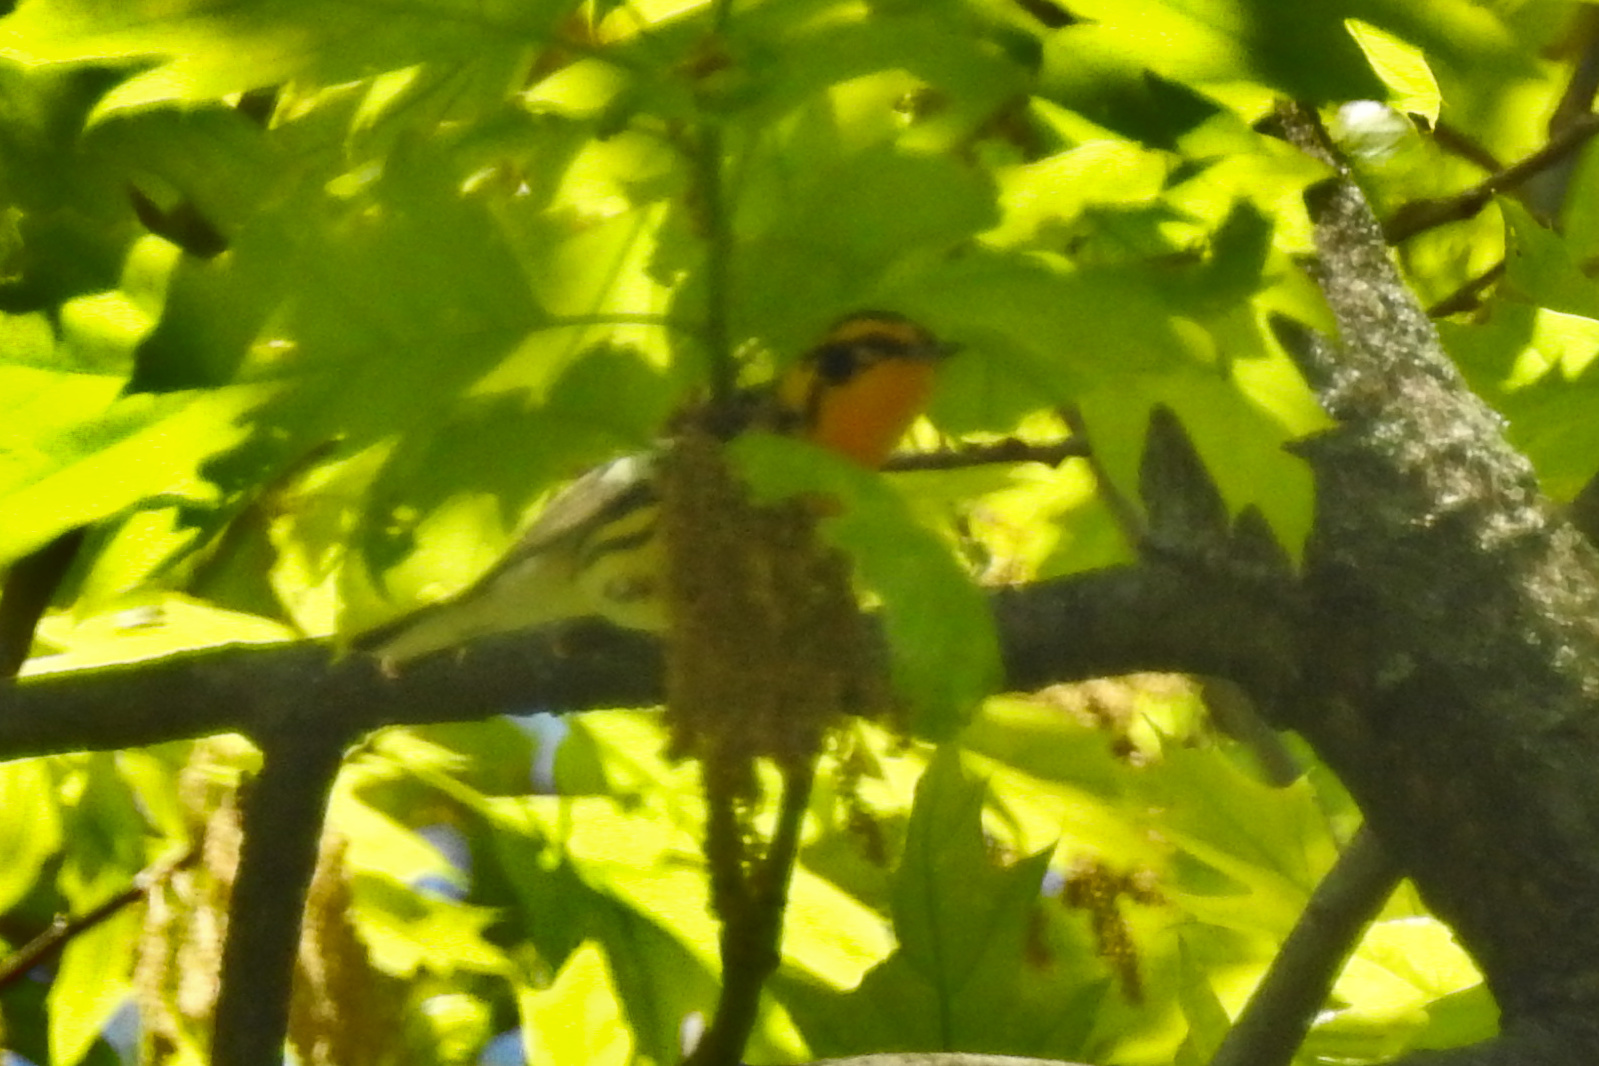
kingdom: Animalia
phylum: Chordata
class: Aves
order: Passeriformes
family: Parulidae
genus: Setophaga
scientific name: Setophaga fusca
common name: Blackburnian warbler
